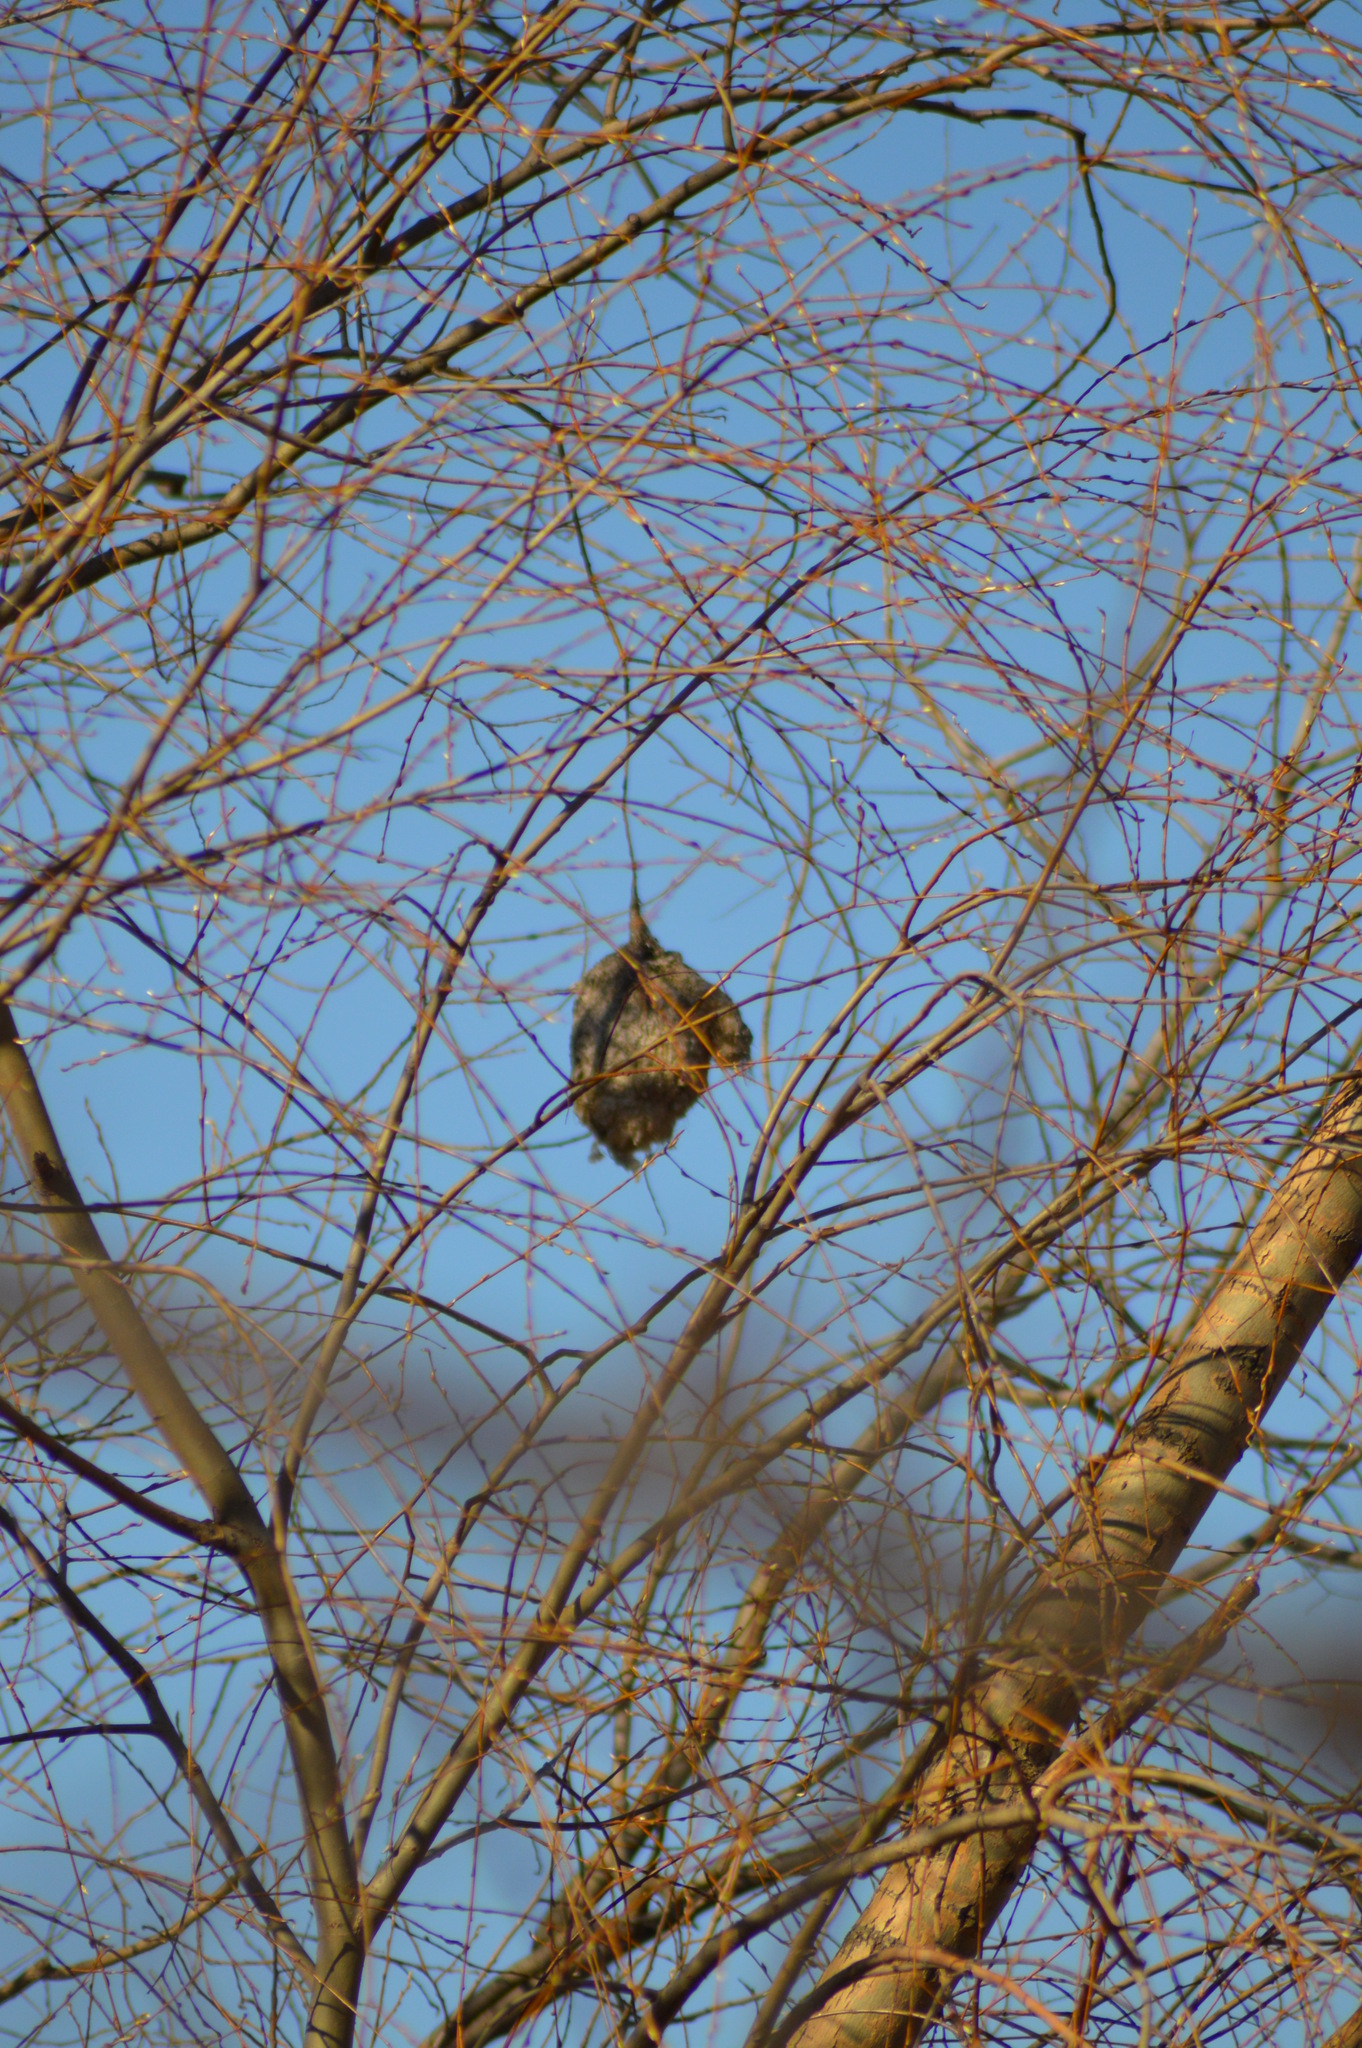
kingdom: Animalia
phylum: Chordata
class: Aves
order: Passeriformes
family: Remizidae
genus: Remiz
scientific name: Remiz pendulinus
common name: Eurasian penduline tit
